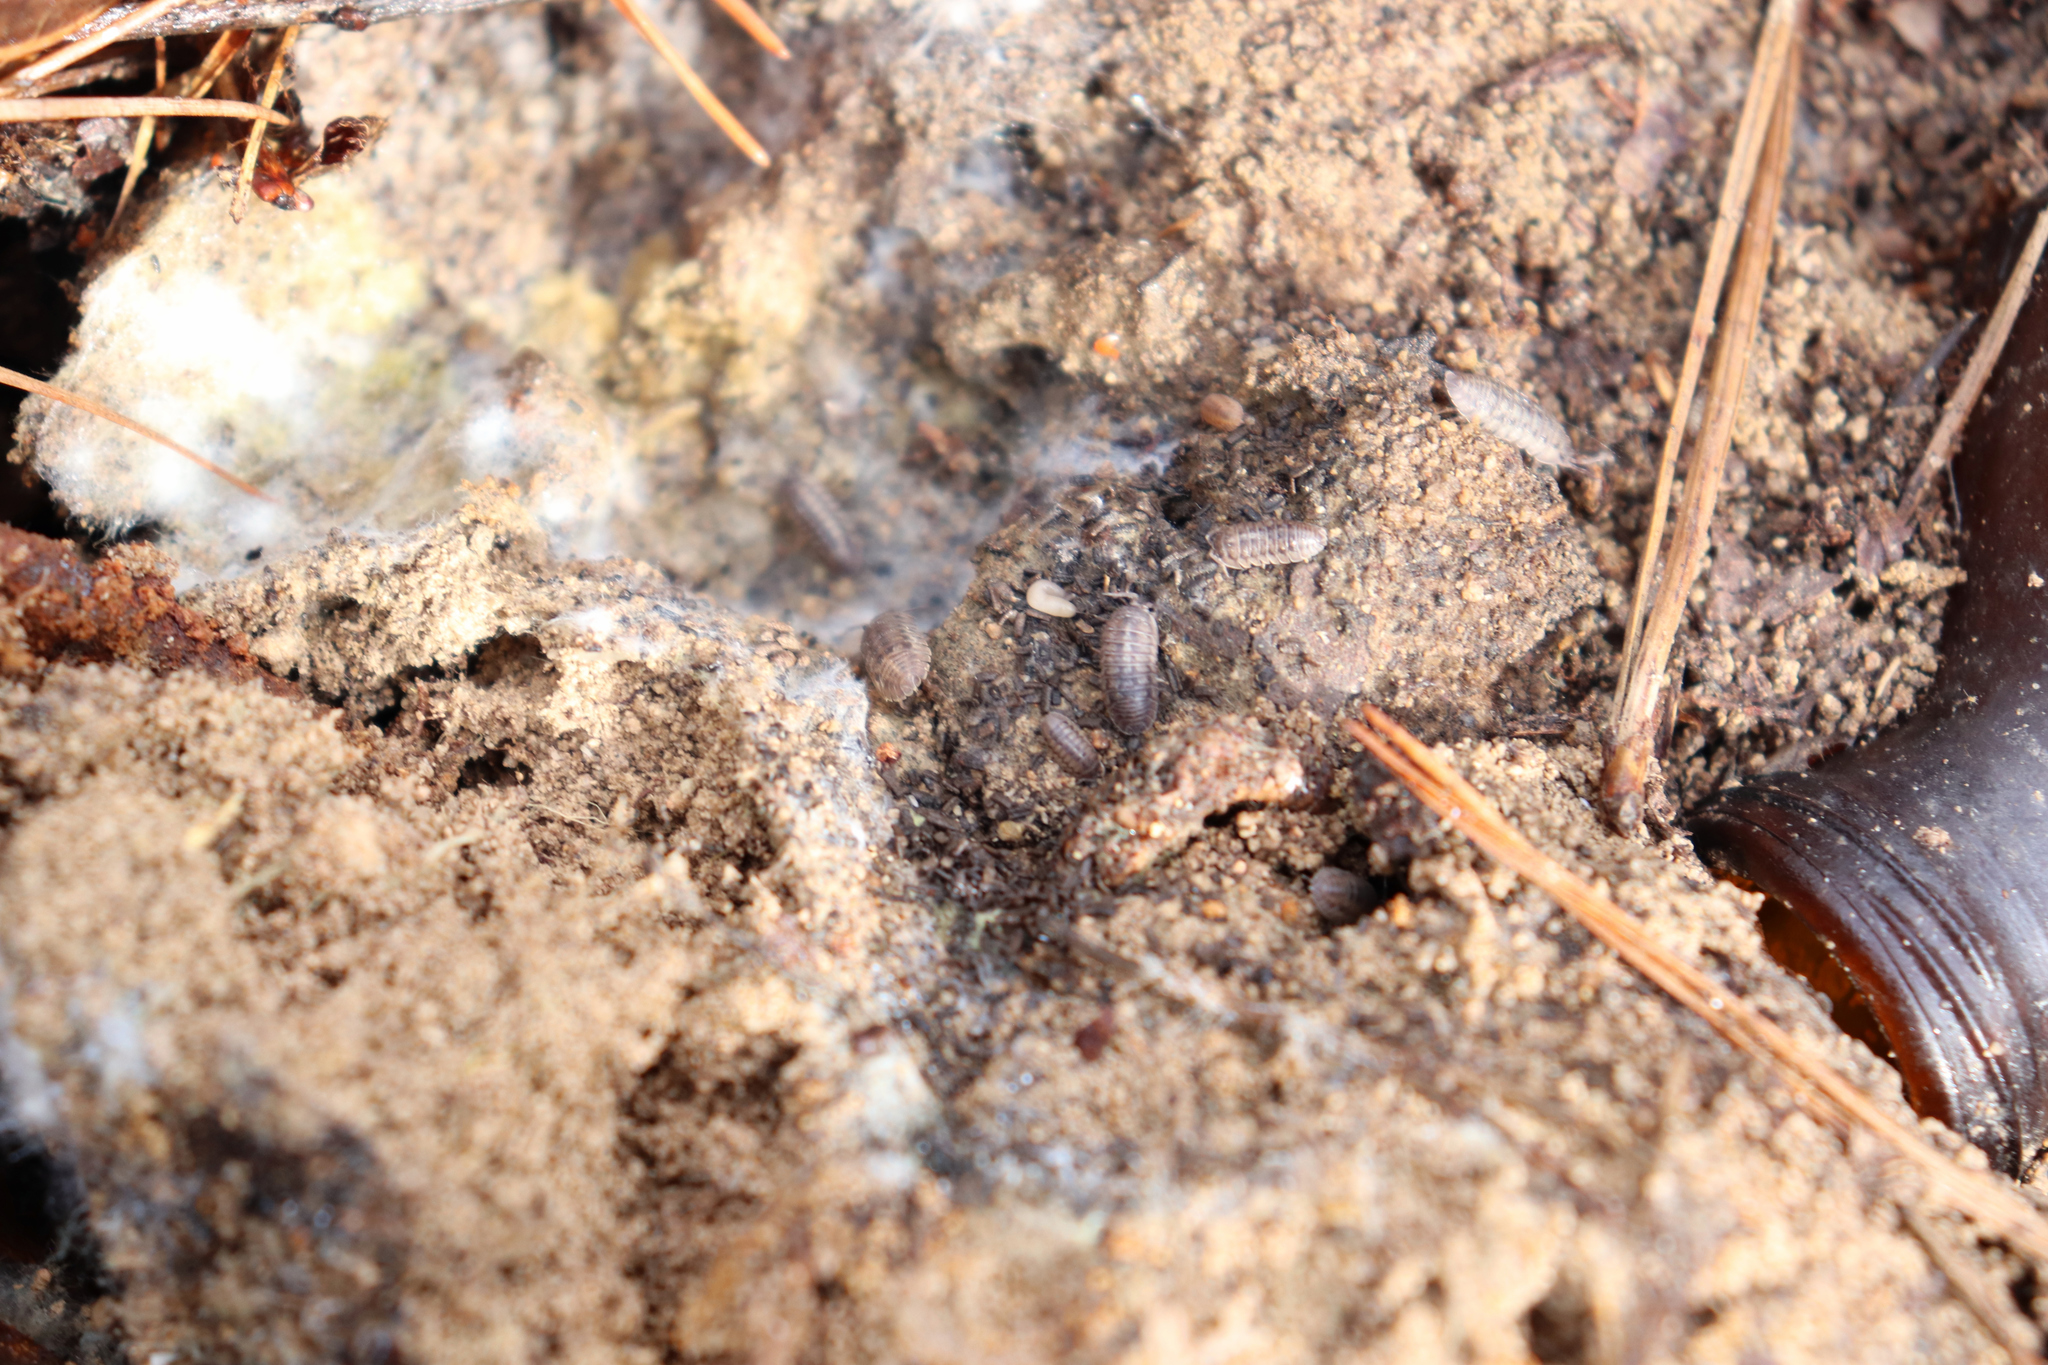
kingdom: Animalia
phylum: Arthropoda
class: Malacostraca
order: Isopoda
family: Armadillidiidae
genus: Armadillidium
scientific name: Armadillidium nasatum
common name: Isopod
